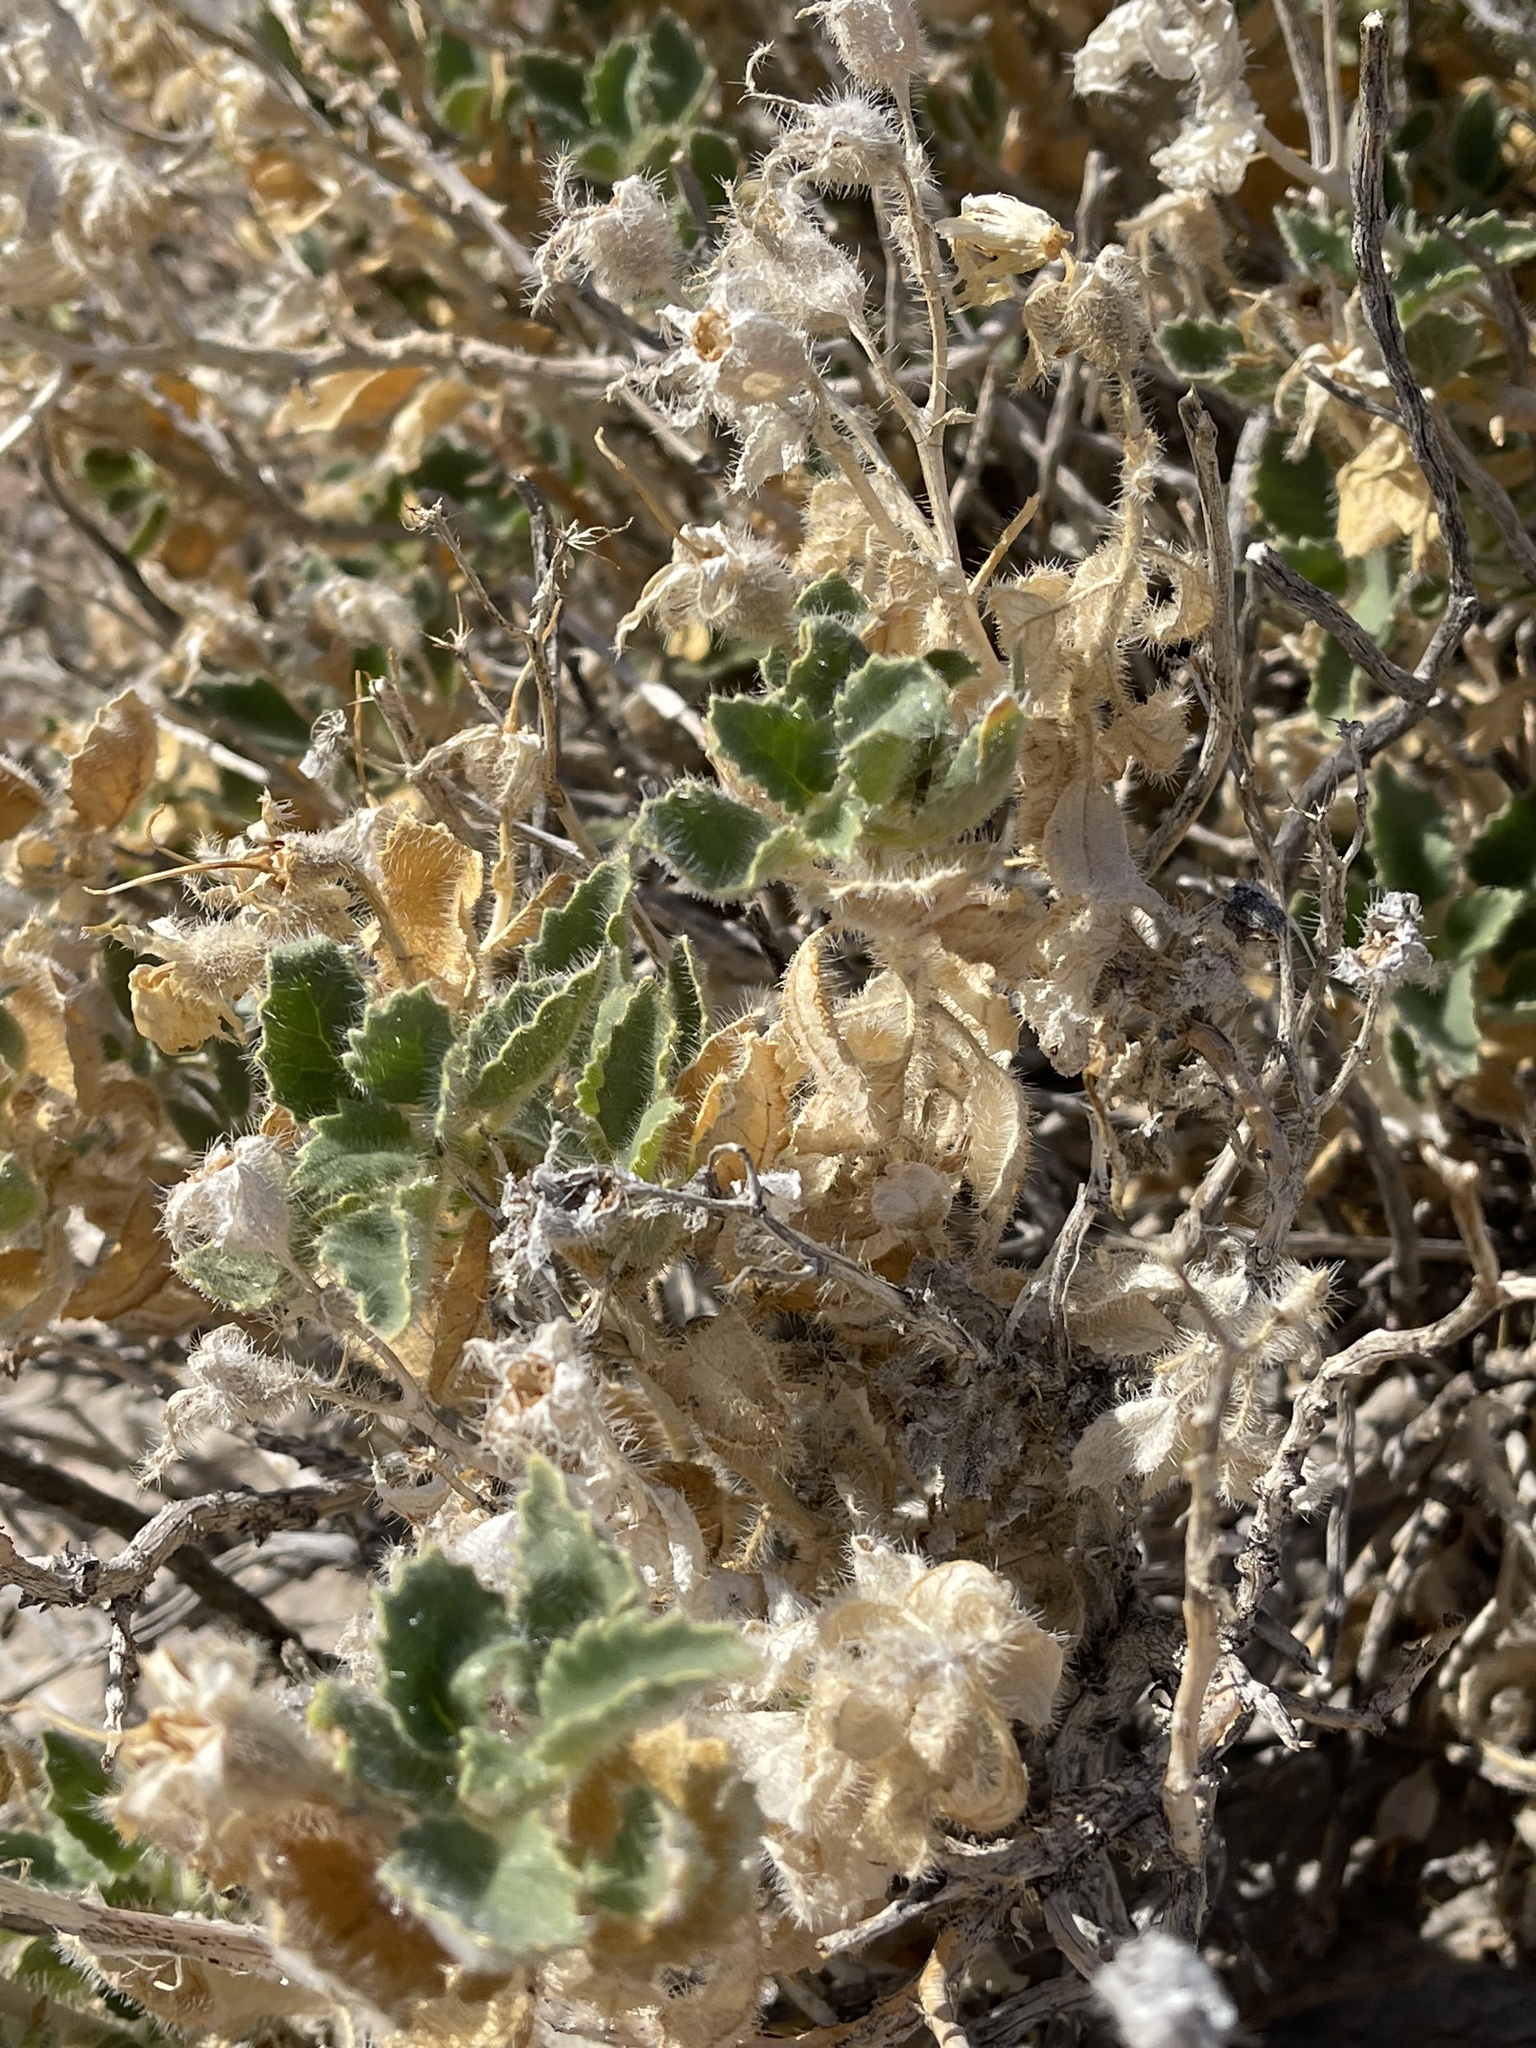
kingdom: Plantae
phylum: Tracheophyta
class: Magnoliopsida
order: Cornales
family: Loasaceae
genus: Eucnide
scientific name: Eucnide urens
